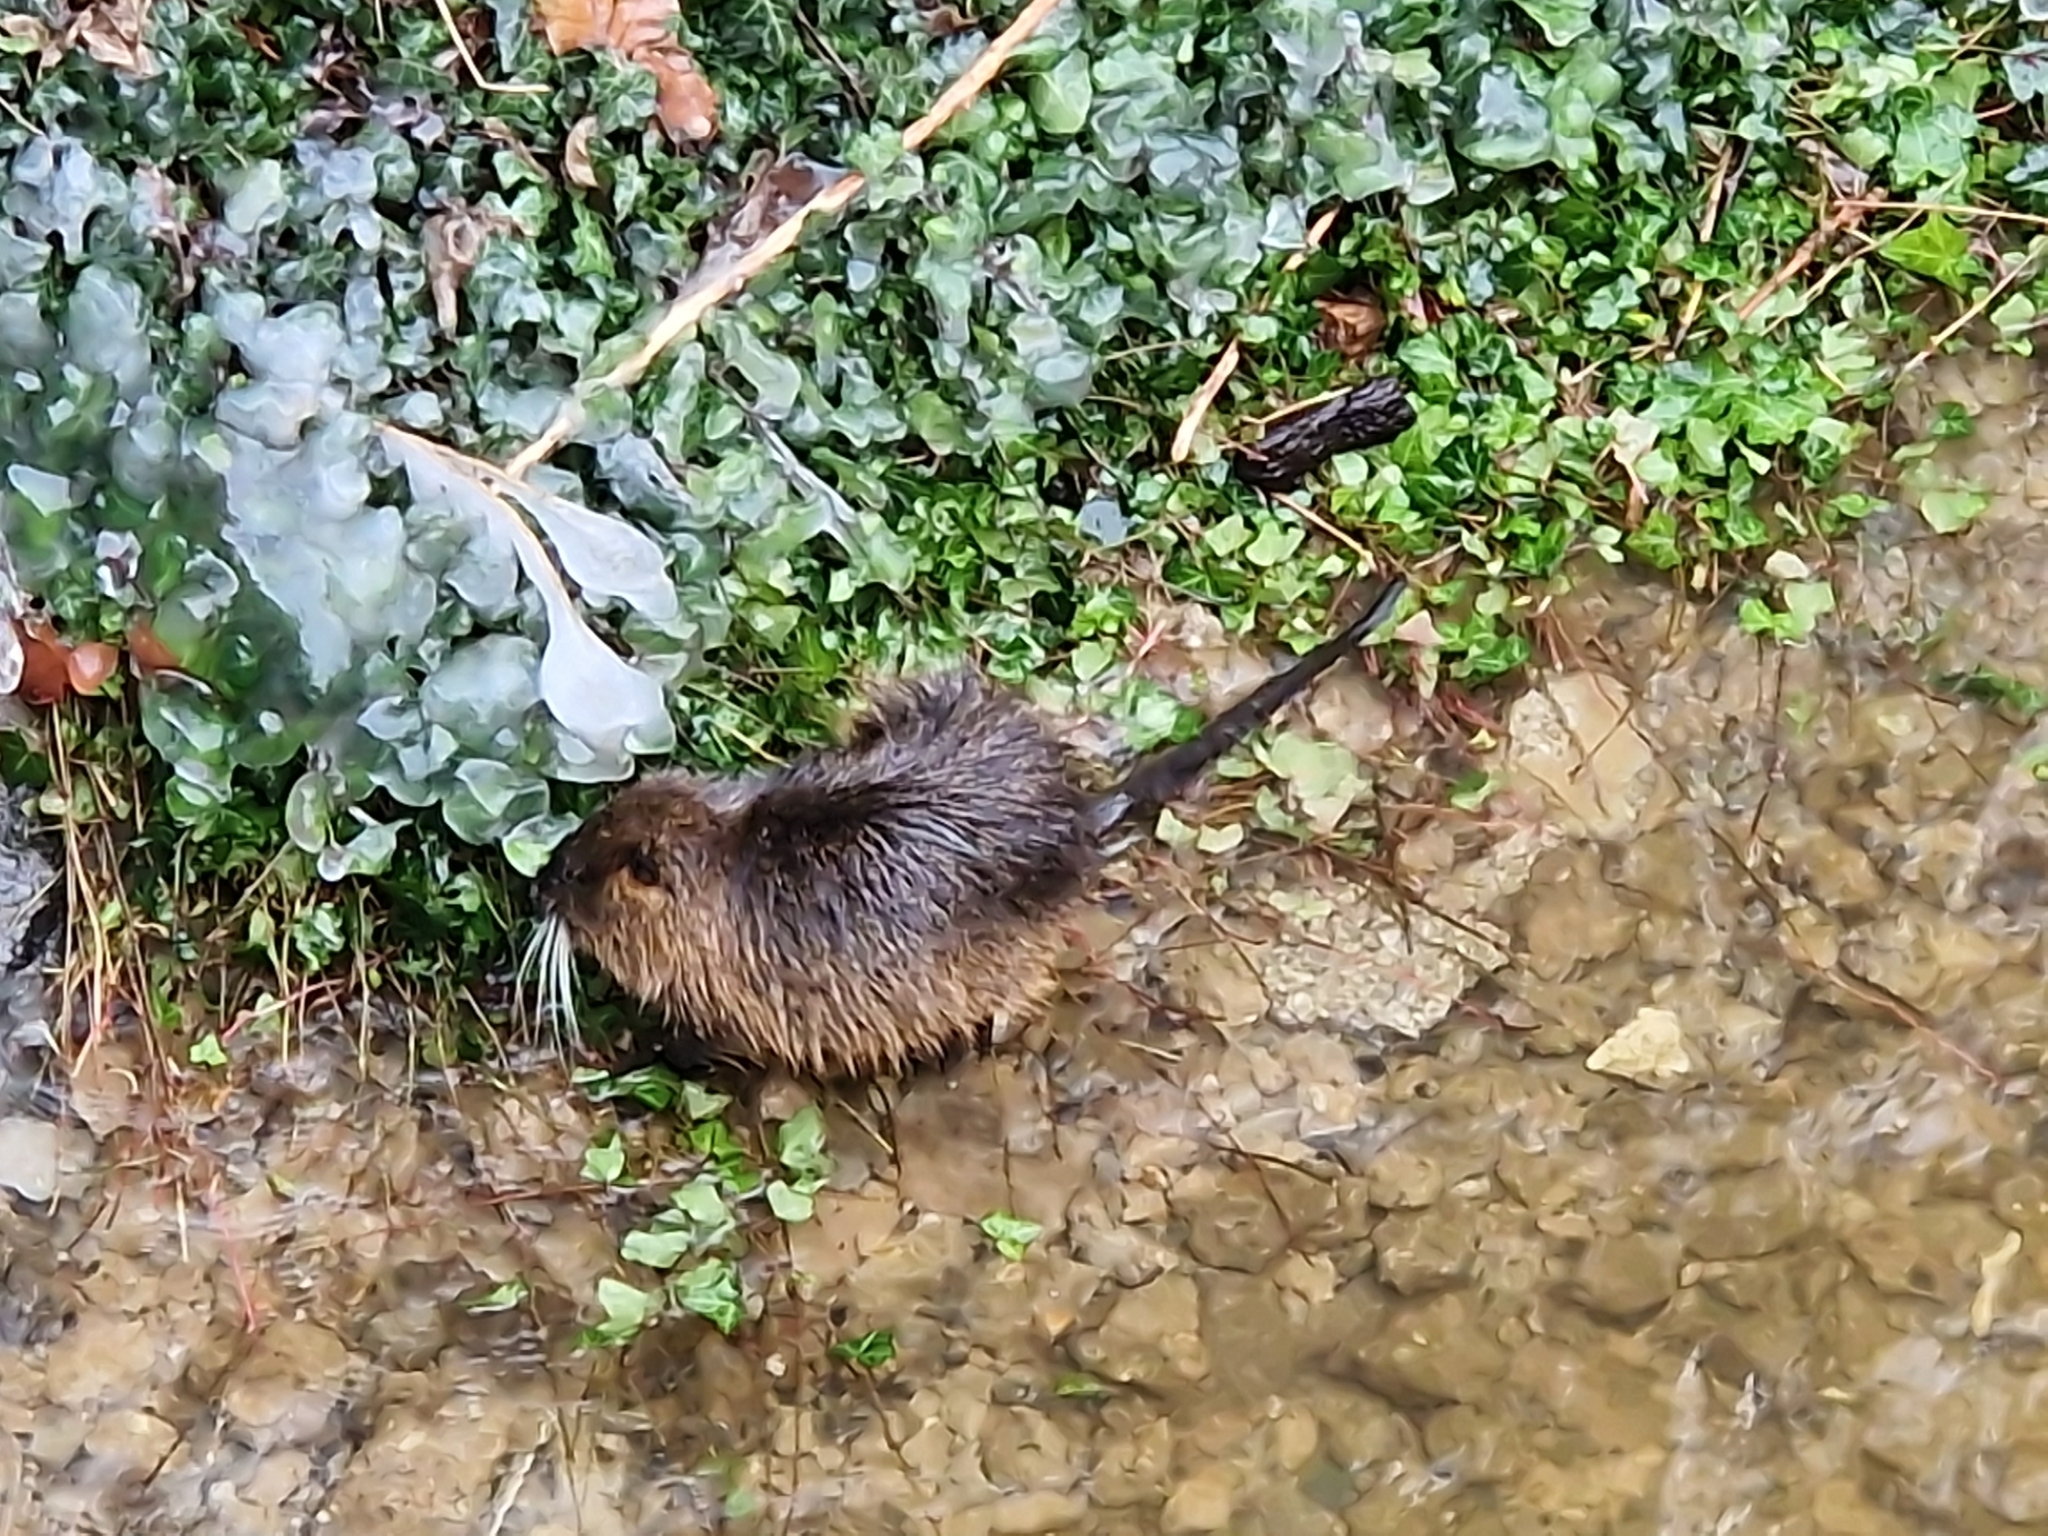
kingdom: Animalia
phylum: Chordata
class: Mammalia
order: Rodentia
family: Myocastoridae
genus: Myocastor
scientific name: Myocastor coypus
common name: Coypu
